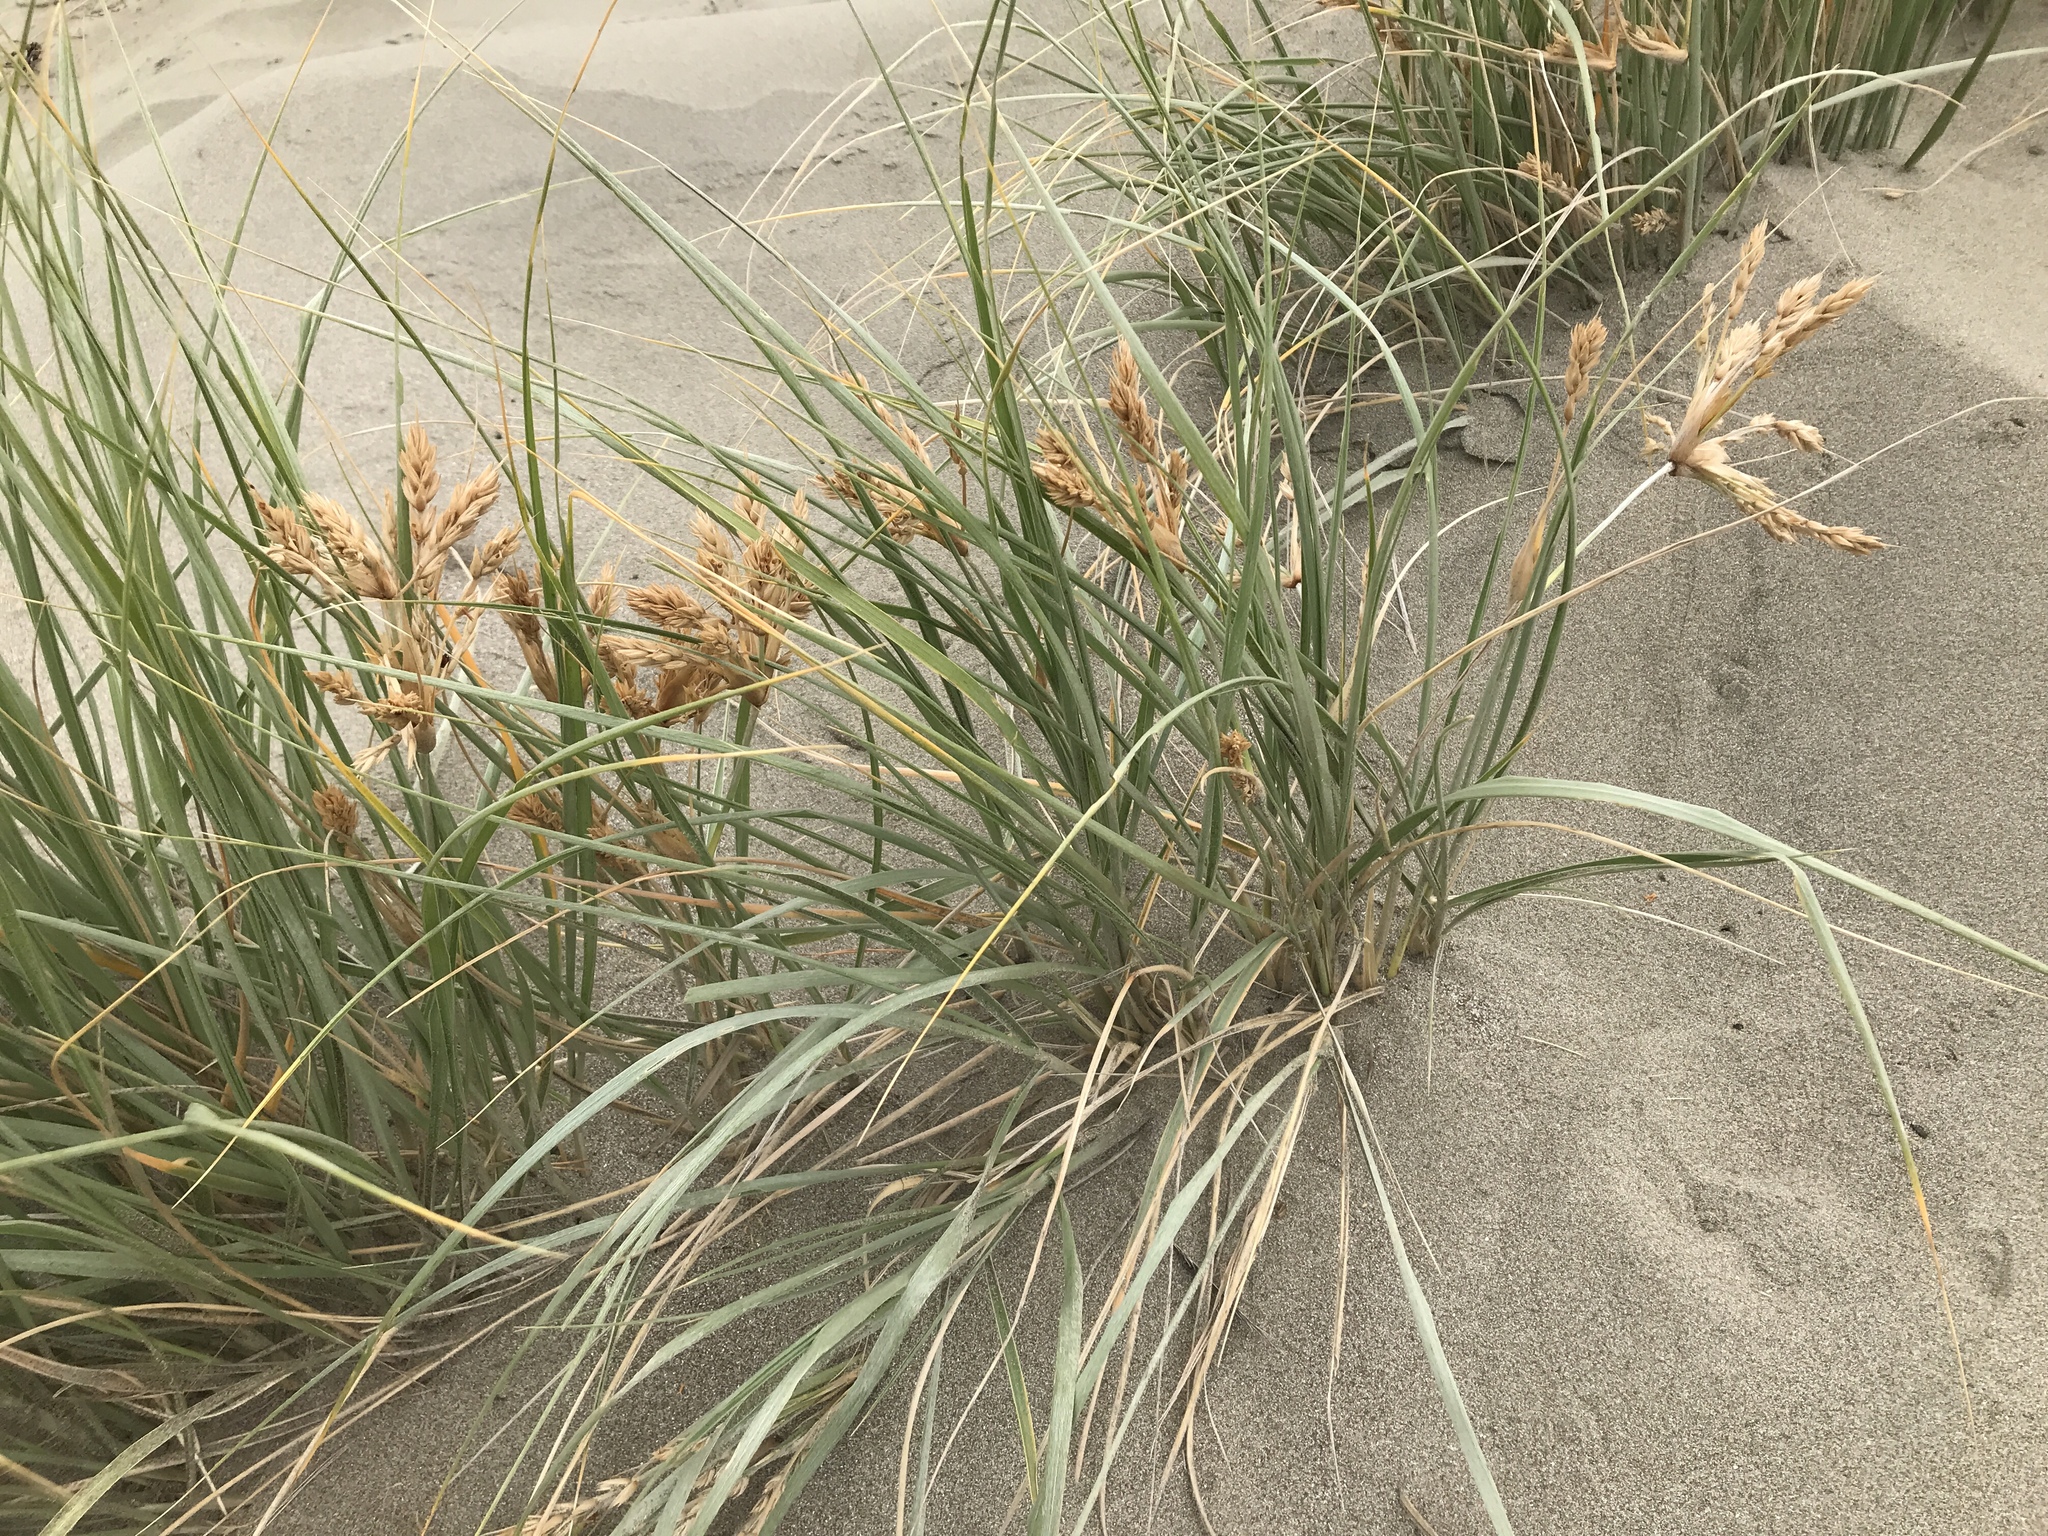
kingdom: Plantae
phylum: Tracheophyta
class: Liliopsida
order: Poales
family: Poaceae
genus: Spinifex
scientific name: Spinifex sericeus
